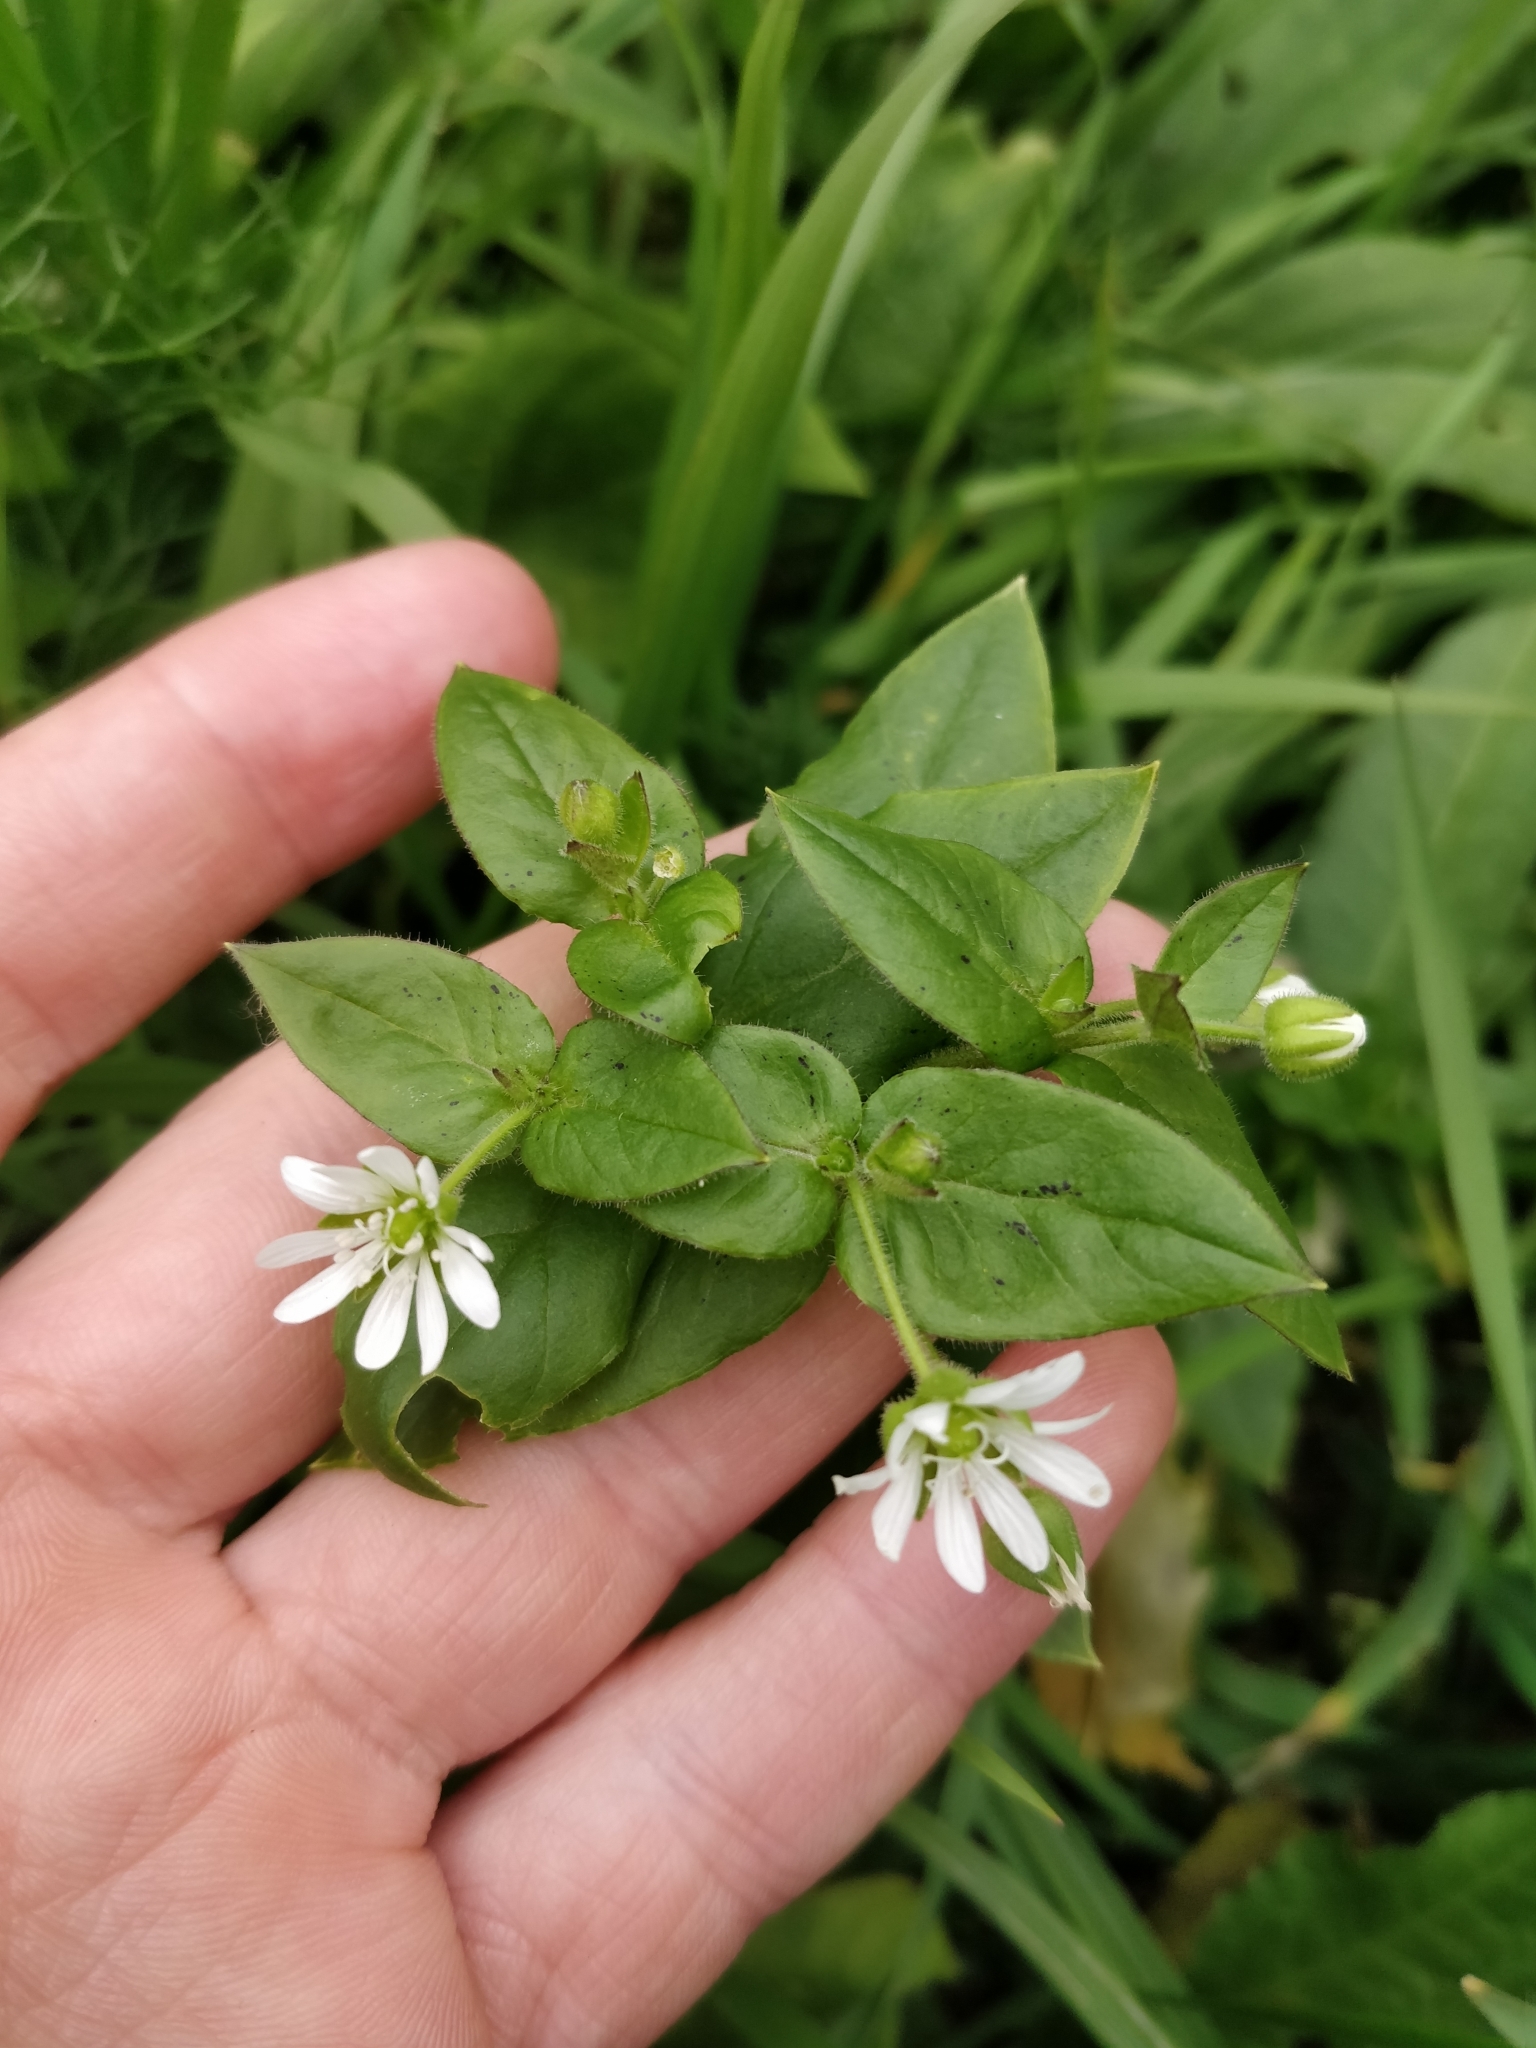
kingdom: Plantae
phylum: Tracheophyta
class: Magnoliopsida
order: Caryophyllales
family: Caryophyllaceae
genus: Stellaria
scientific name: Stellaria aquatica
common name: Water chickweed
